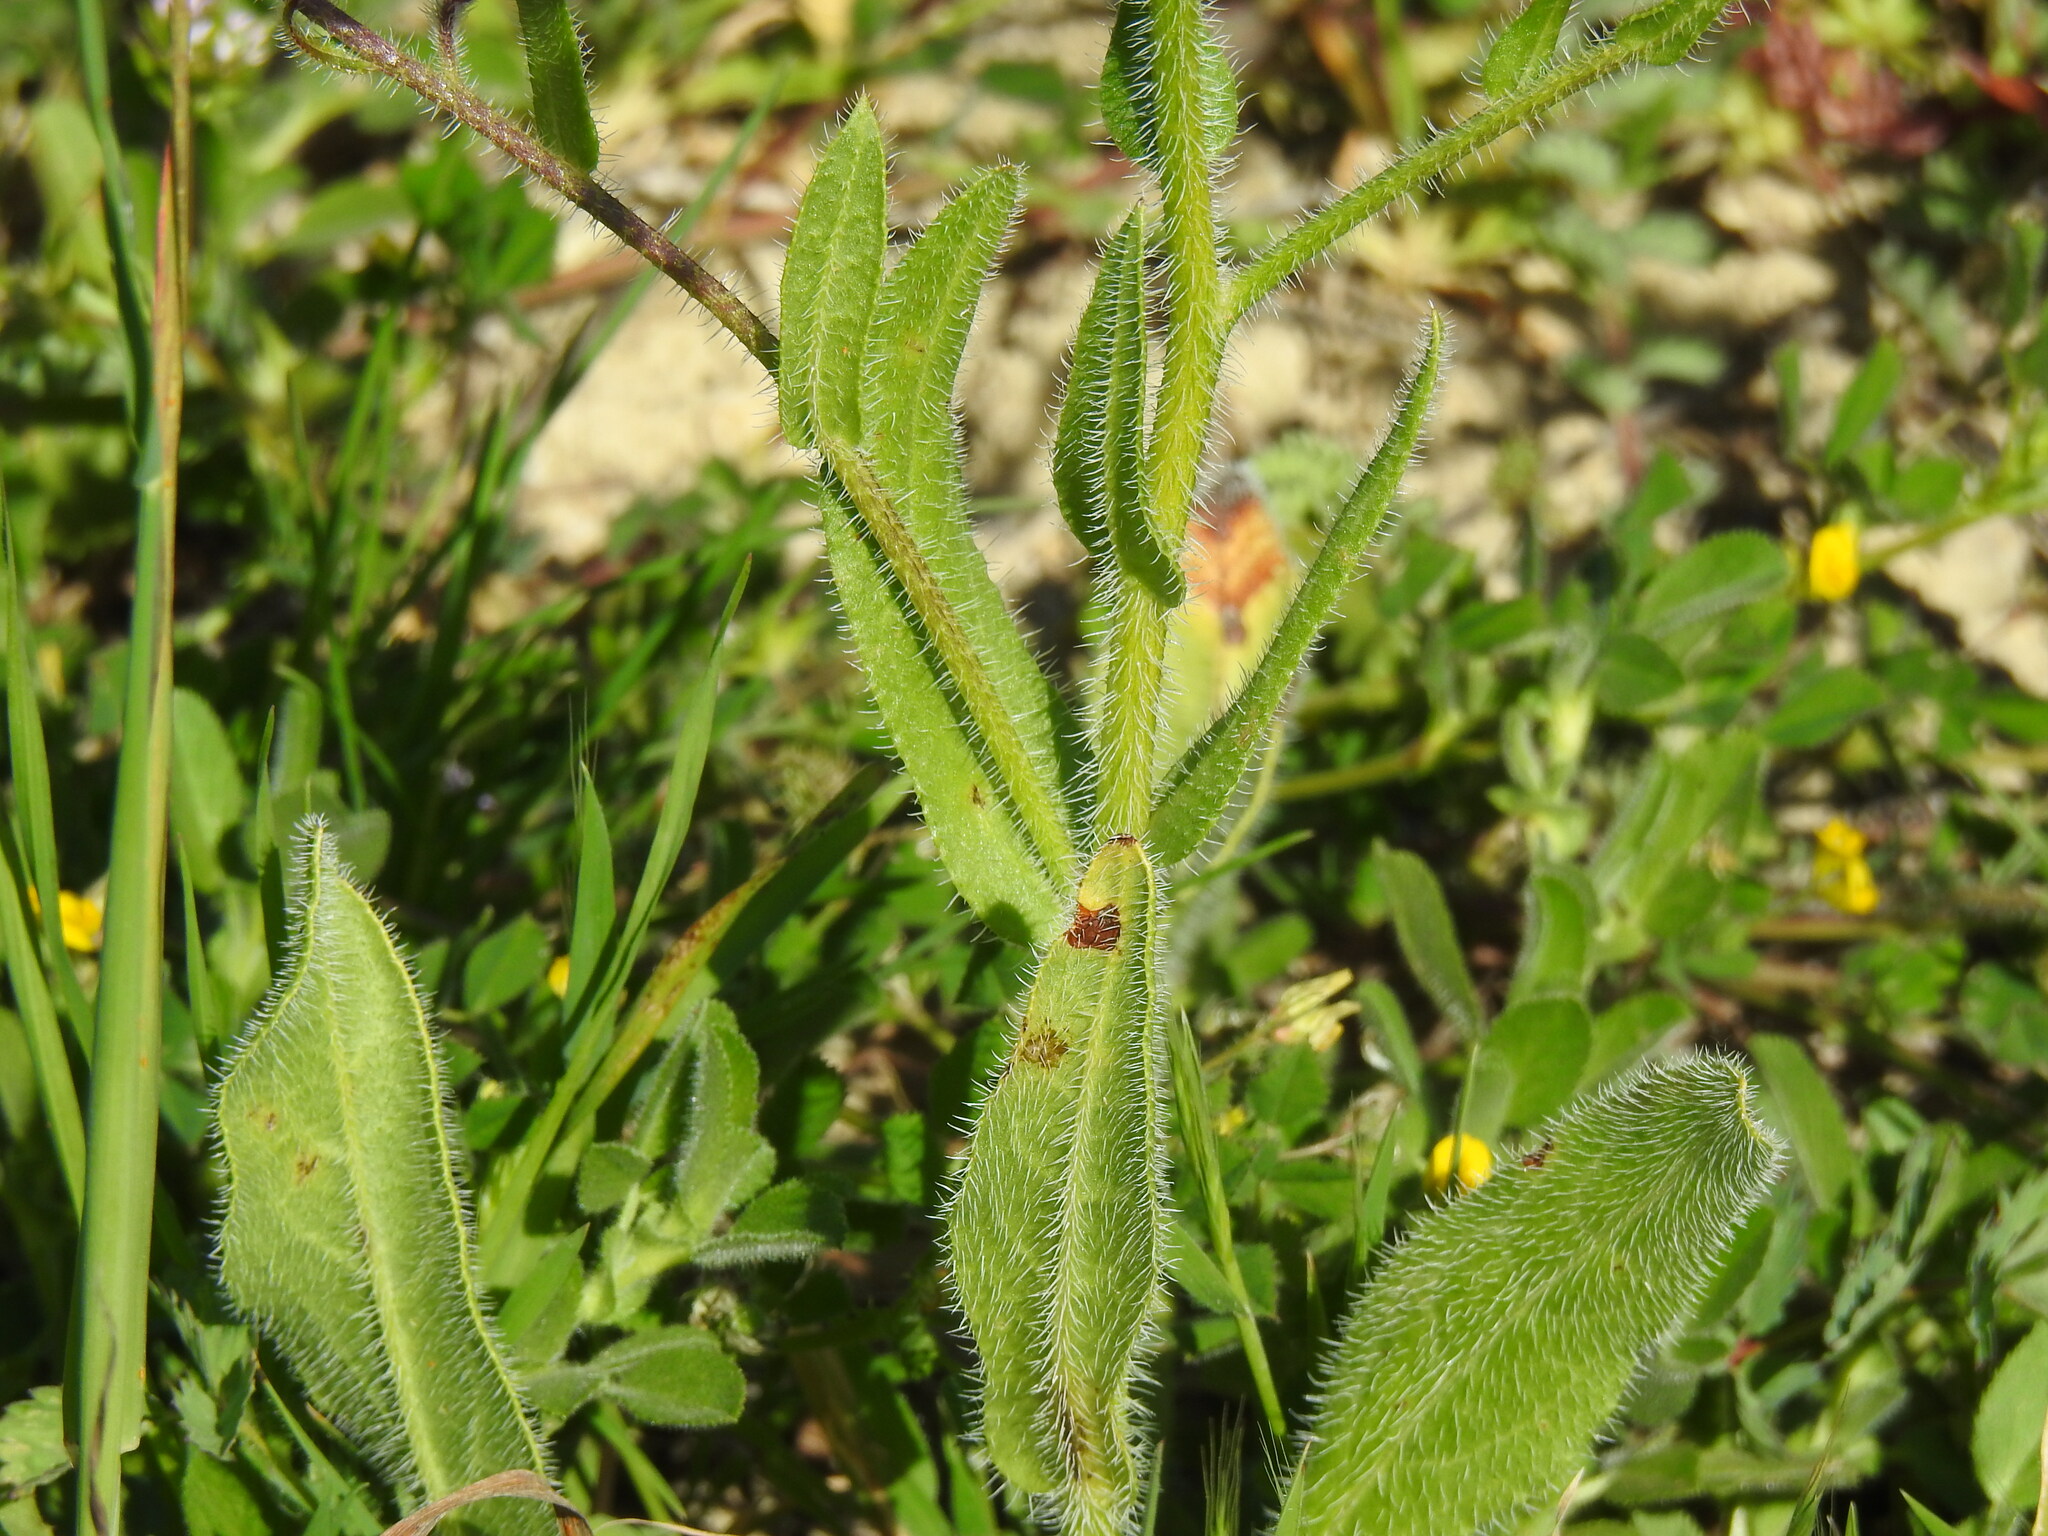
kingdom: Plantae
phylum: Tracheophyta
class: Magnoliopsida
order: Boraginales
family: Boraginaceae
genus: Anchusa
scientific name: Anchusa azurea
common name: Garden anchusa
